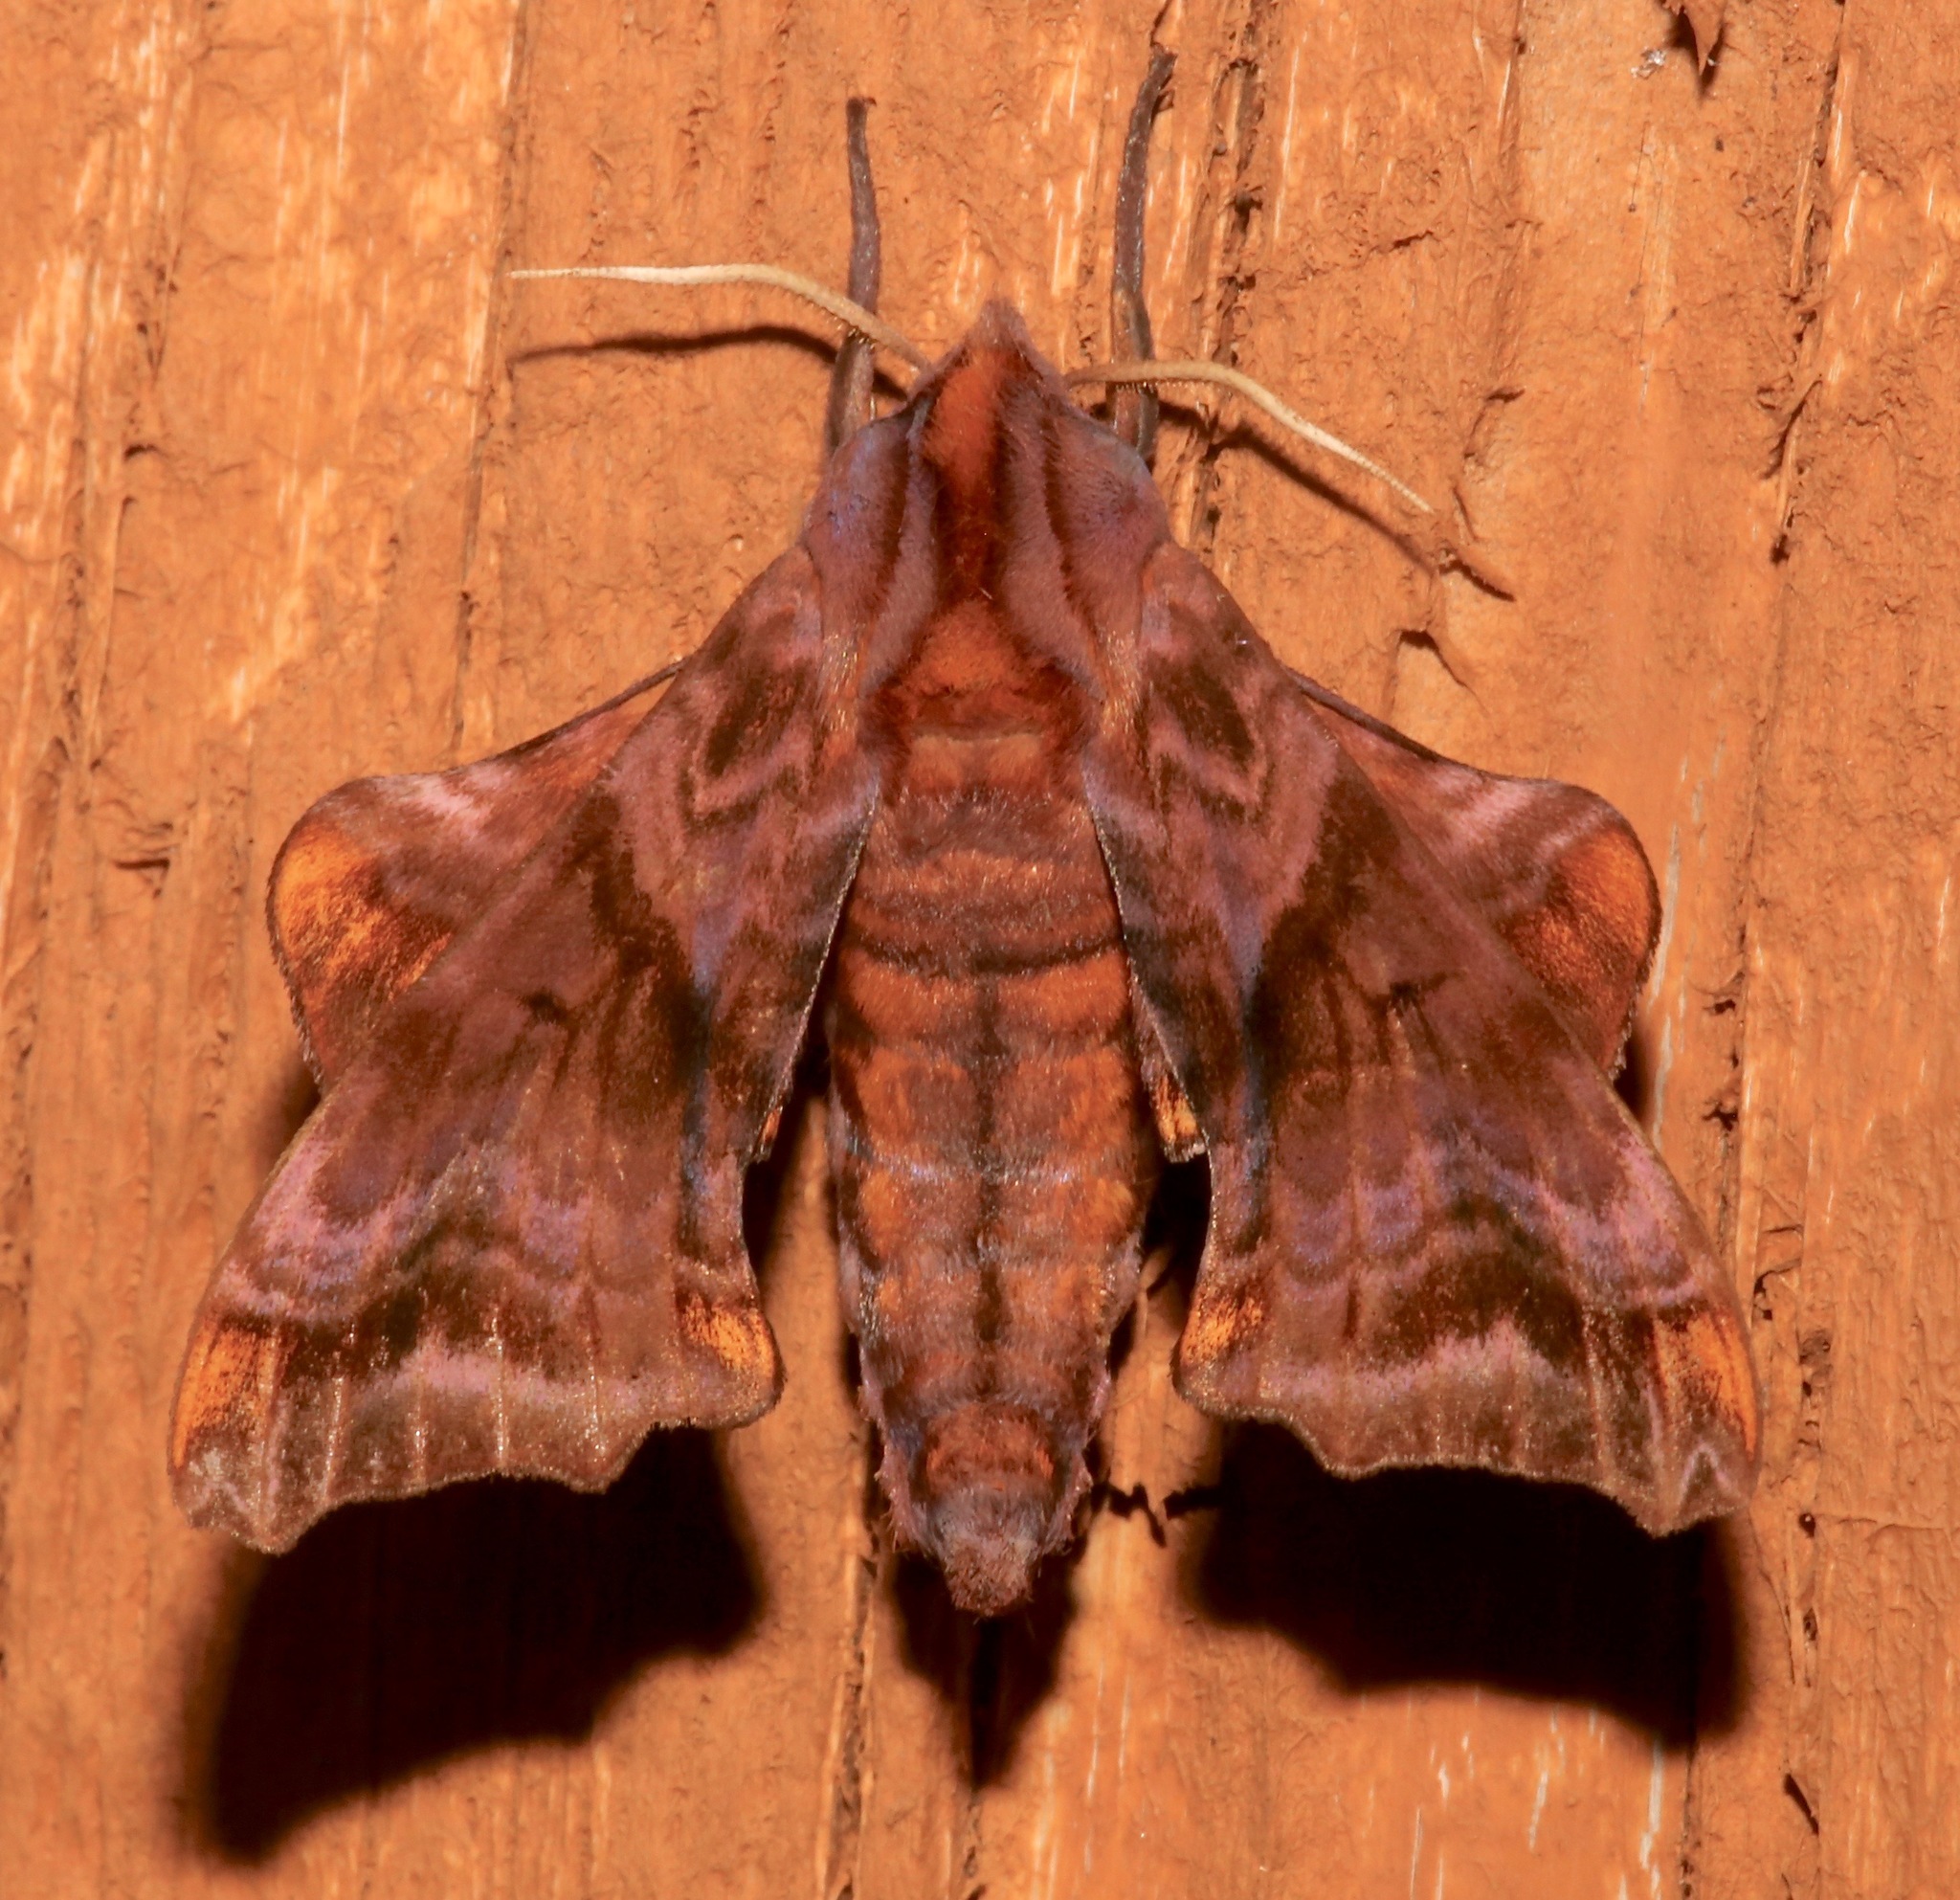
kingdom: Animalia
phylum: Arthropoda
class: Insecta
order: Lepidoptera
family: Sphingidae
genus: Paonias
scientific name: Paonias myops
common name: Small-eyed sphinx
